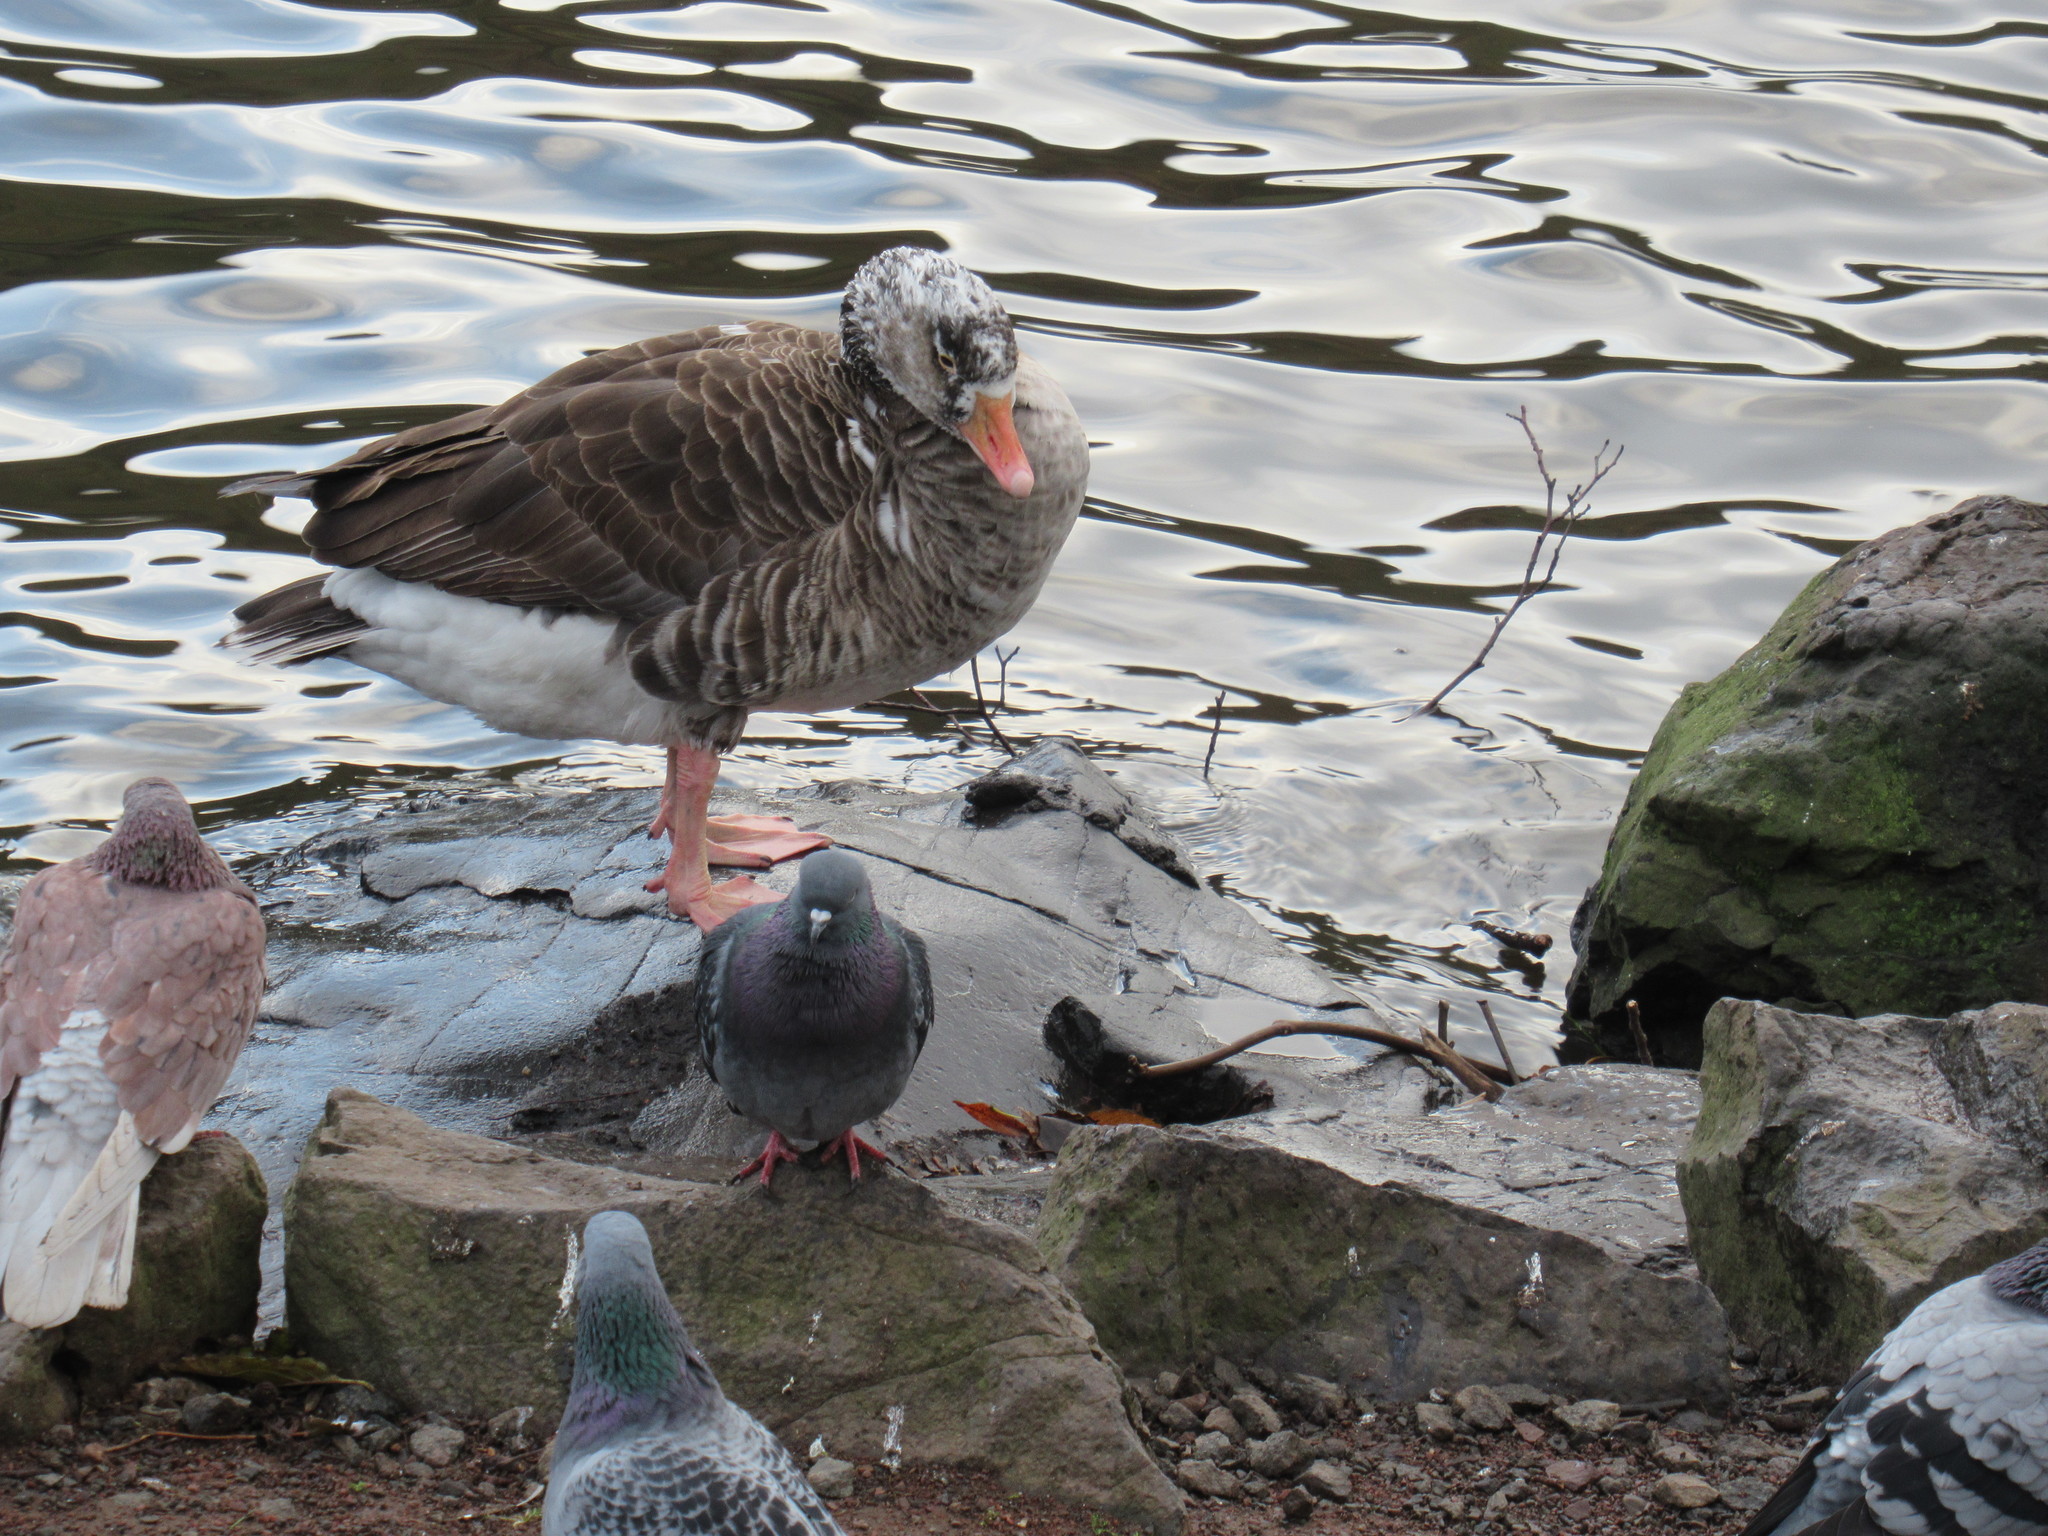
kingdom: Animalia
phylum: Chordata
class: Aves
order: Anseriformes
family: Anatidae
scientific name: Anatidae
